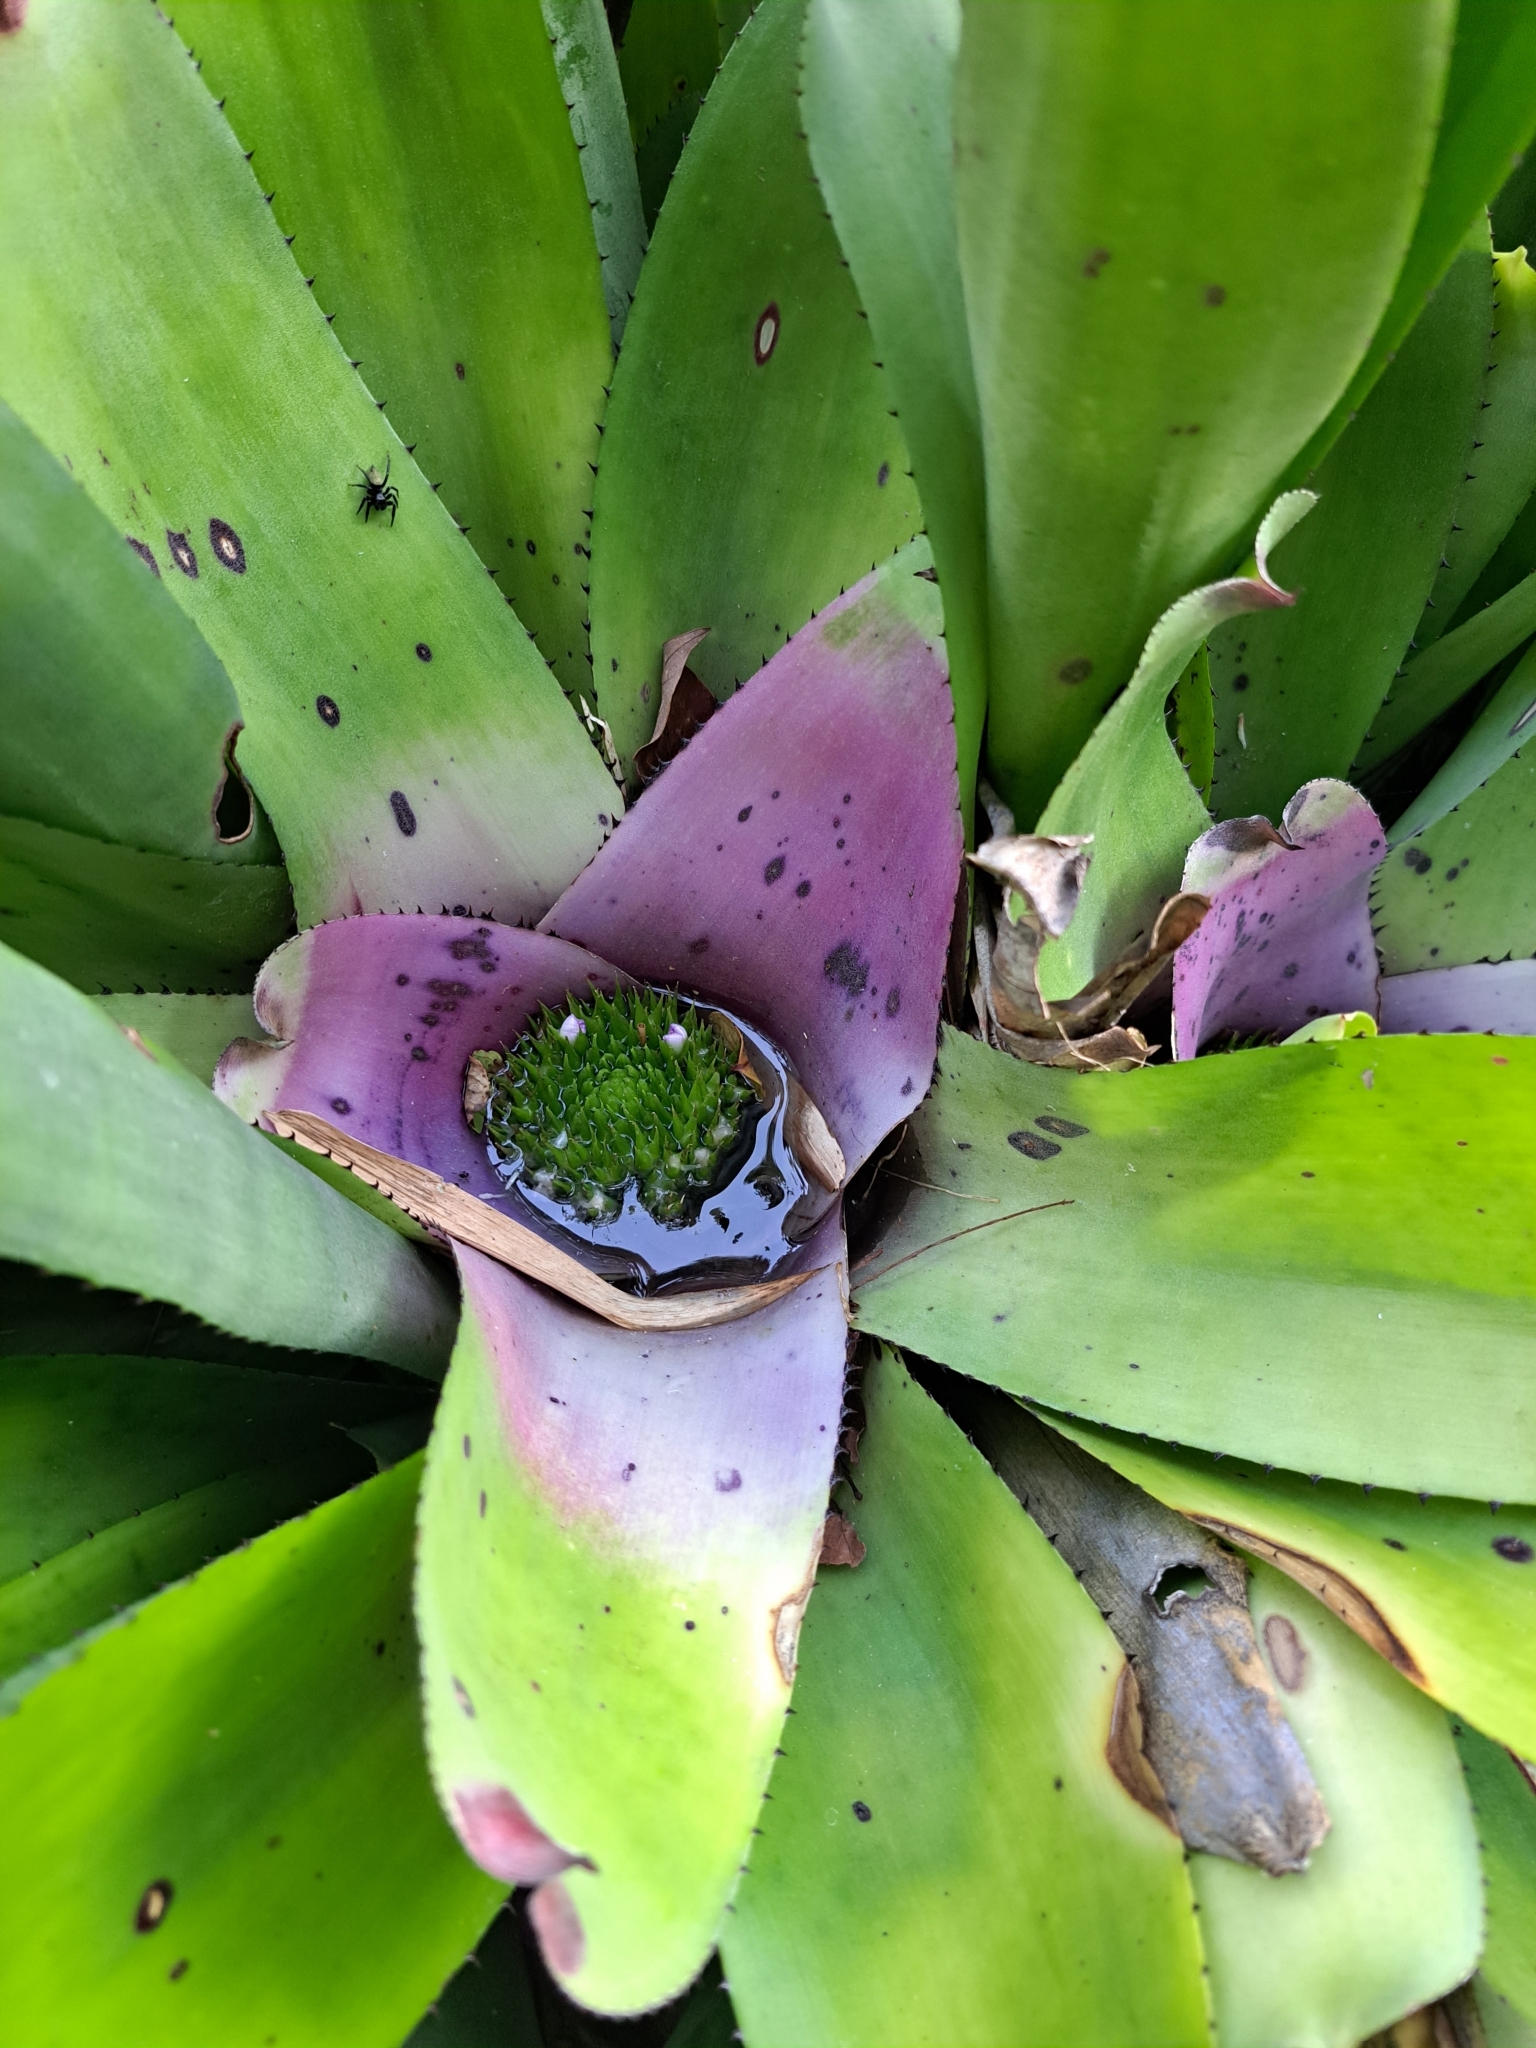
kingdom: Plantae
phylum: Tracheophyta
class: Liliopsida
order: Poales
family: Bromeliaceae
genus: Neoregelia
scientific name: Neoregelia concentrica
